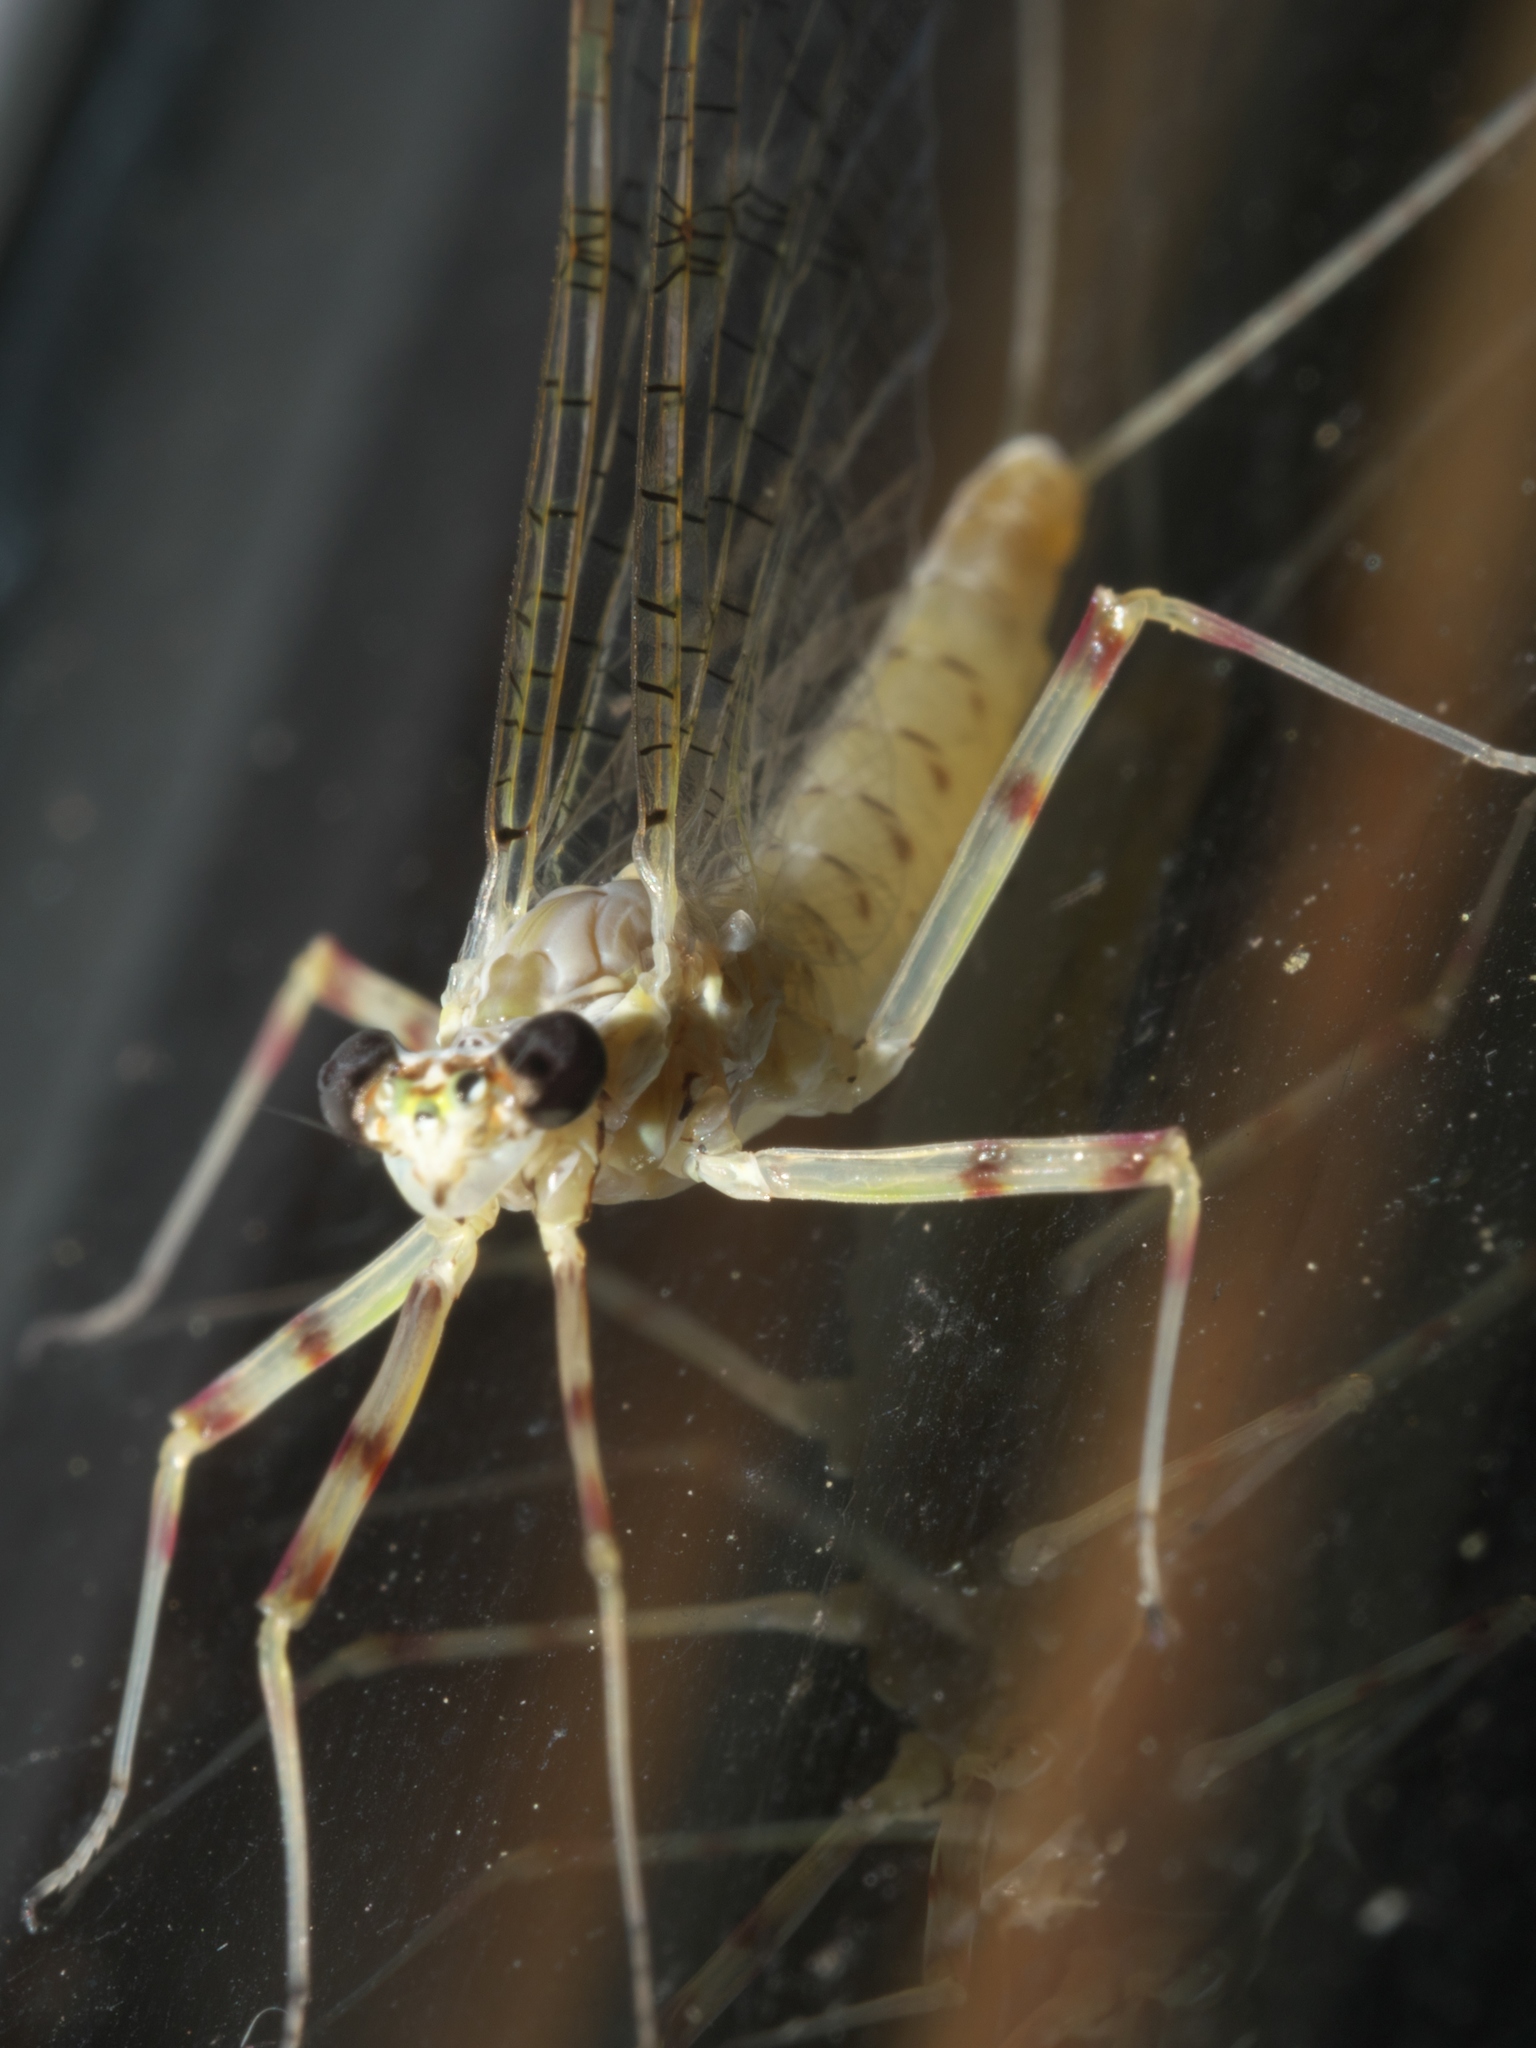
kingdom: Animalia
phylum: Arthropoda
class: Insecta
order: Ephemeroptera
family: Heptageniidae
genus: Stenonema
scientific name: Stenonema femoratum
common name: Dark cahill
